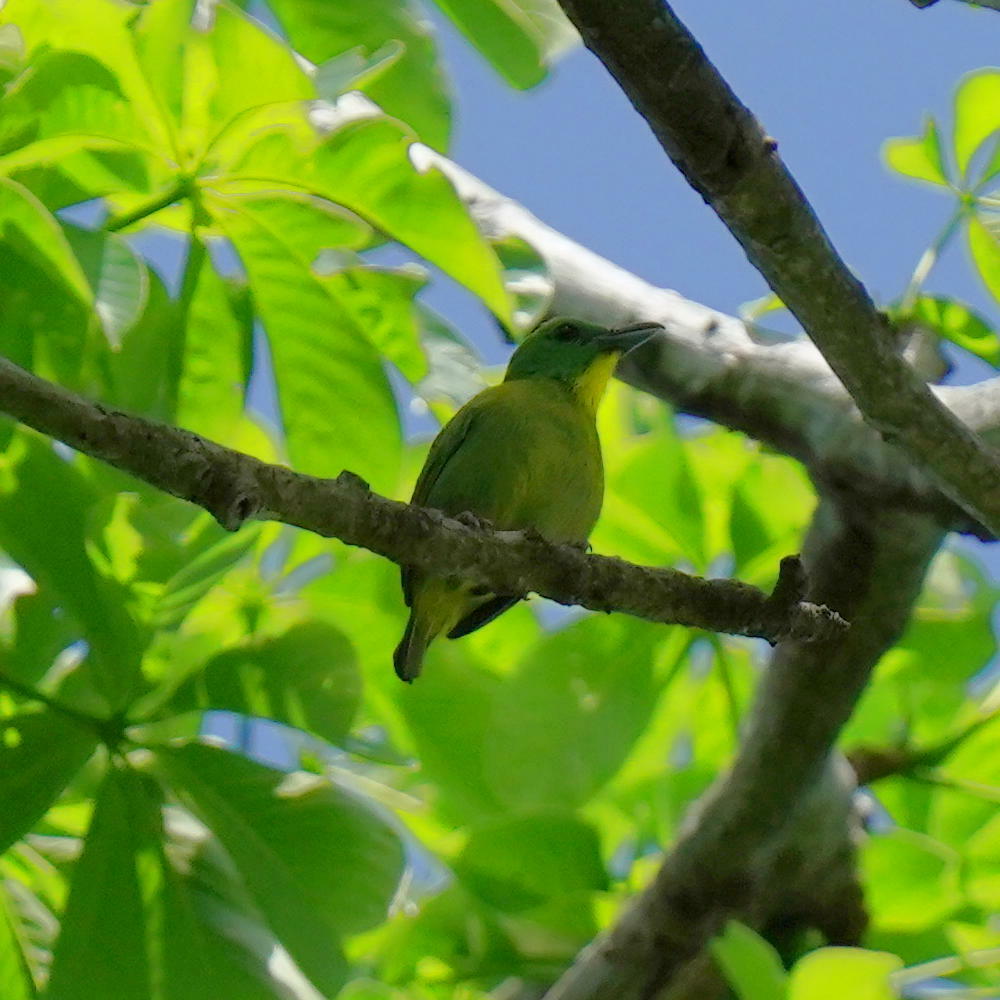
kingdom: Animalia
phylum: Chordata
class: Aves
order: Passeriformes
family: Vireonidae
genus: Vireolanius
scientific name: Vireolanius pulchellus
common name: Green shrike-vireo
